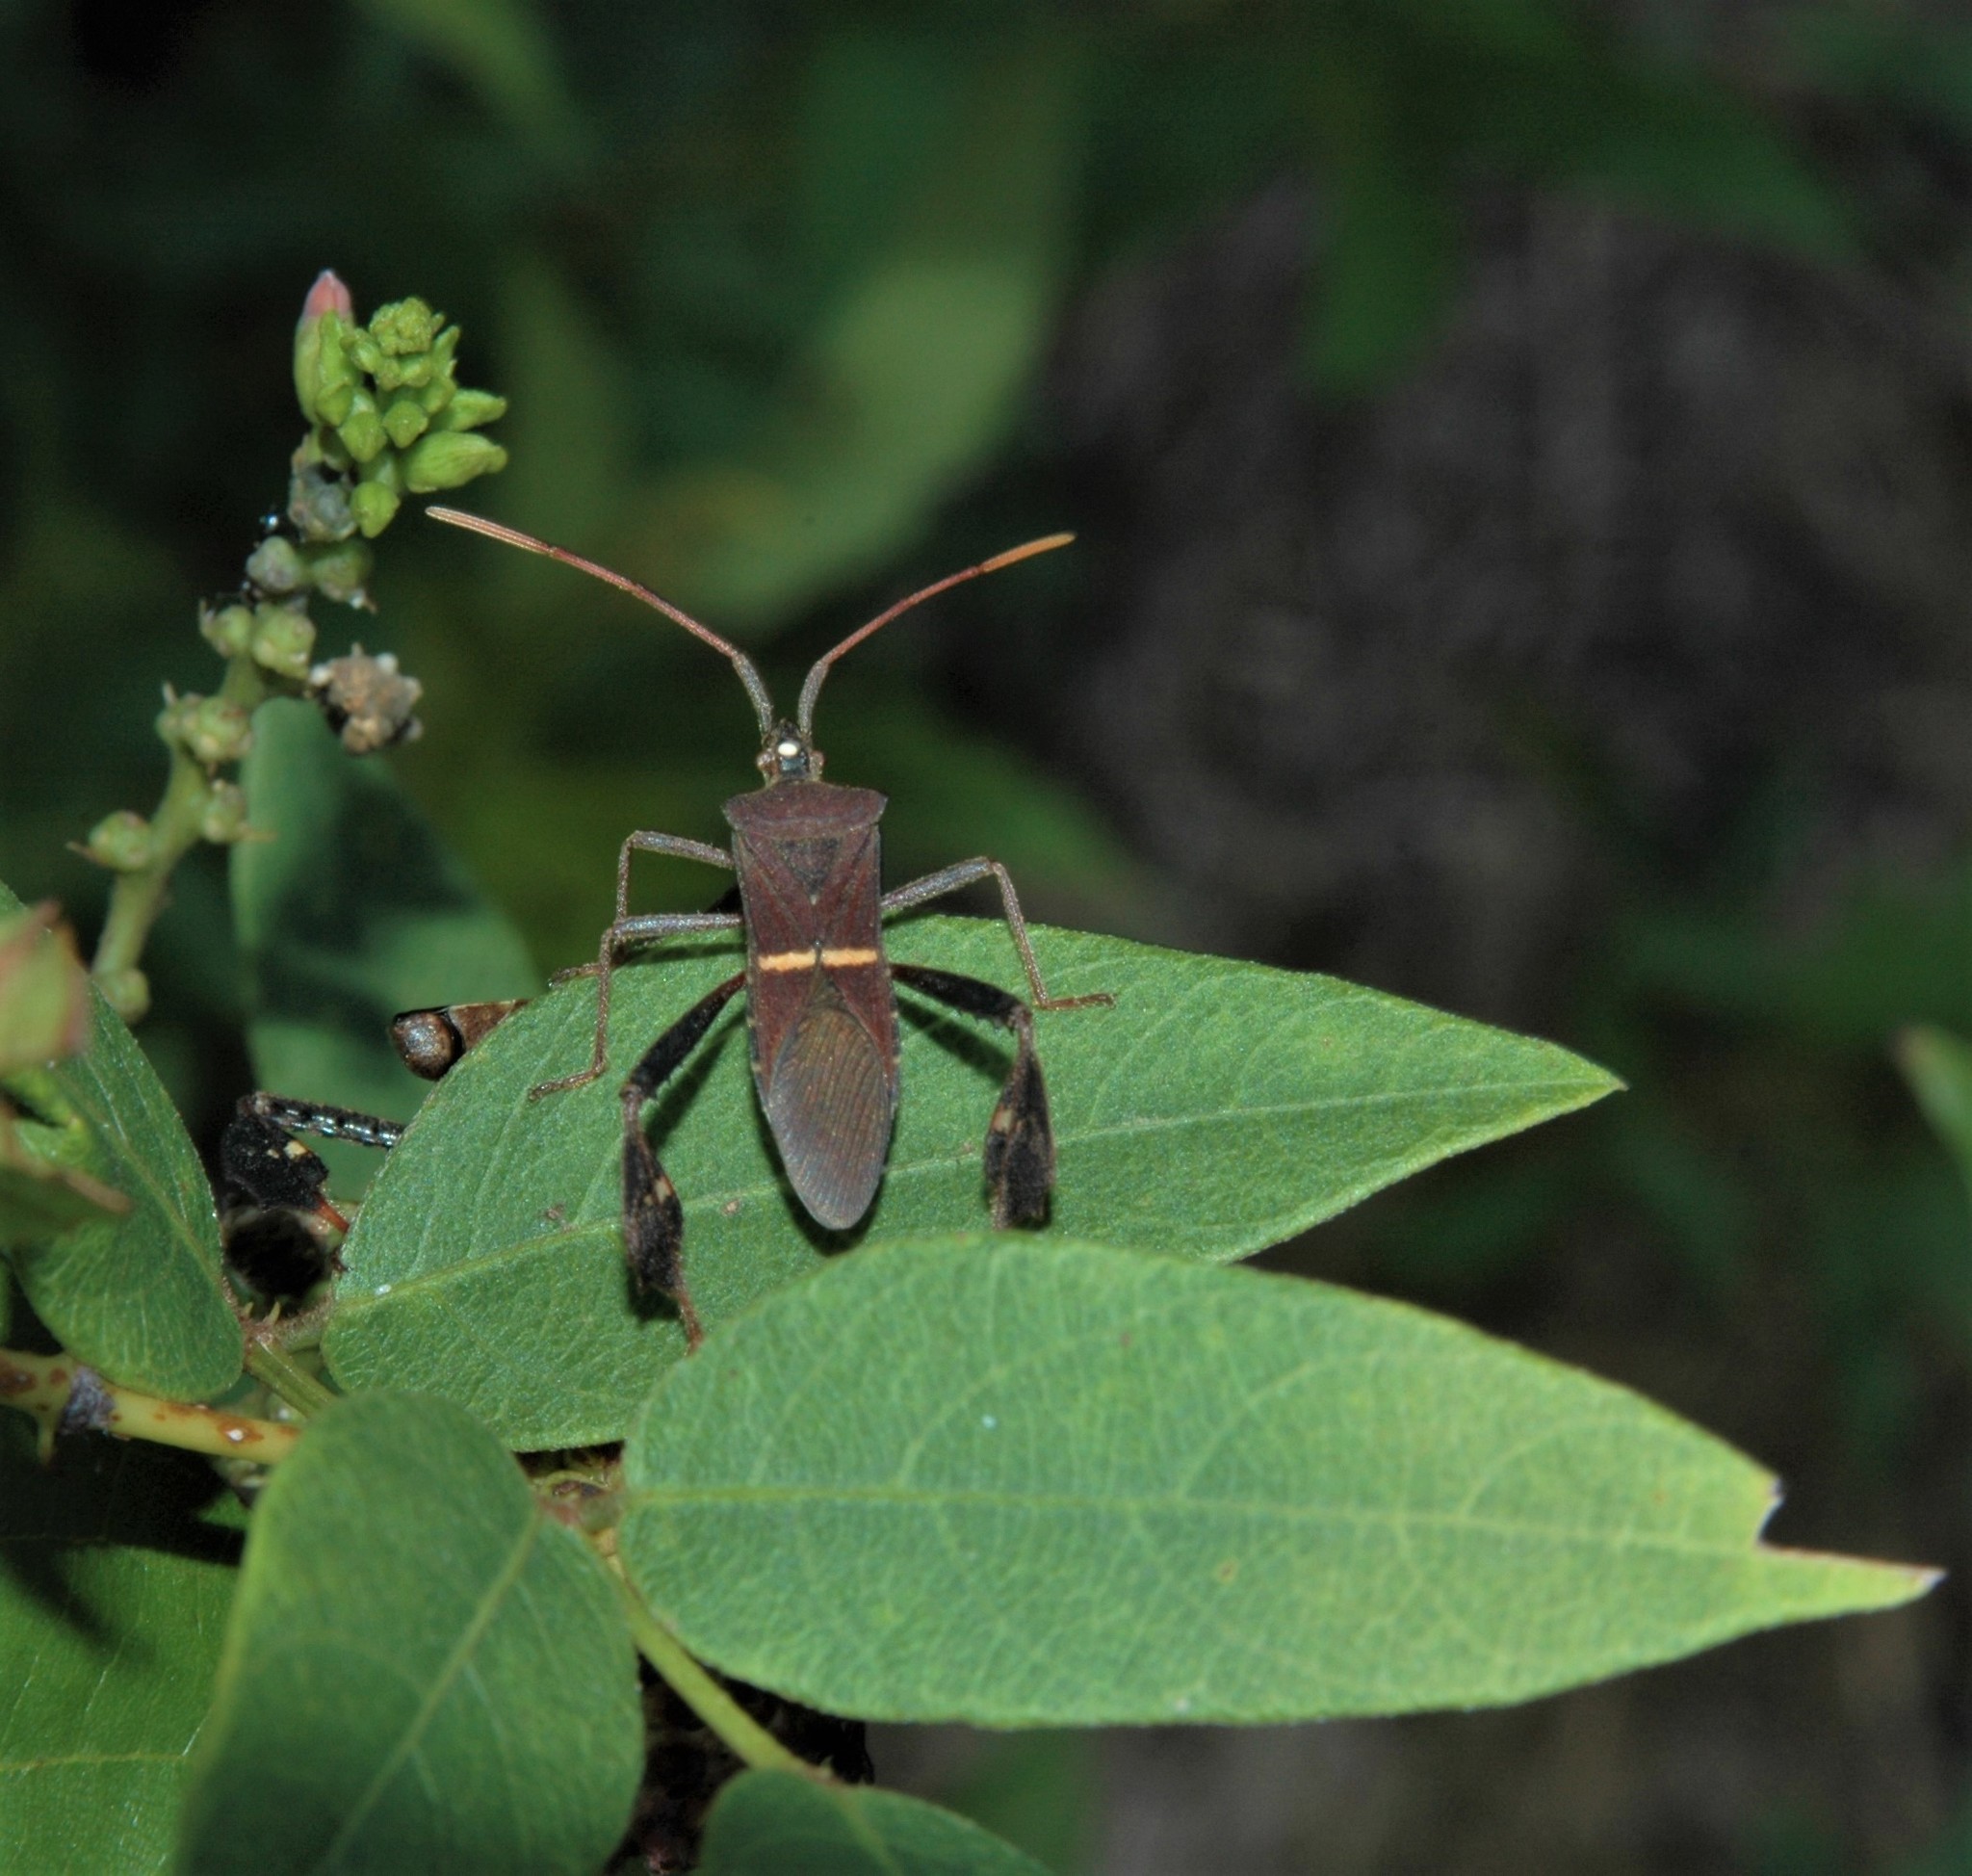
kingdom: Animalia
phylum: Arthropoda
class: Insecta
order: Hemiptera
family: Coreidae
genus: Leptoglossus
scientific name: Leptoglossus phyllopus
